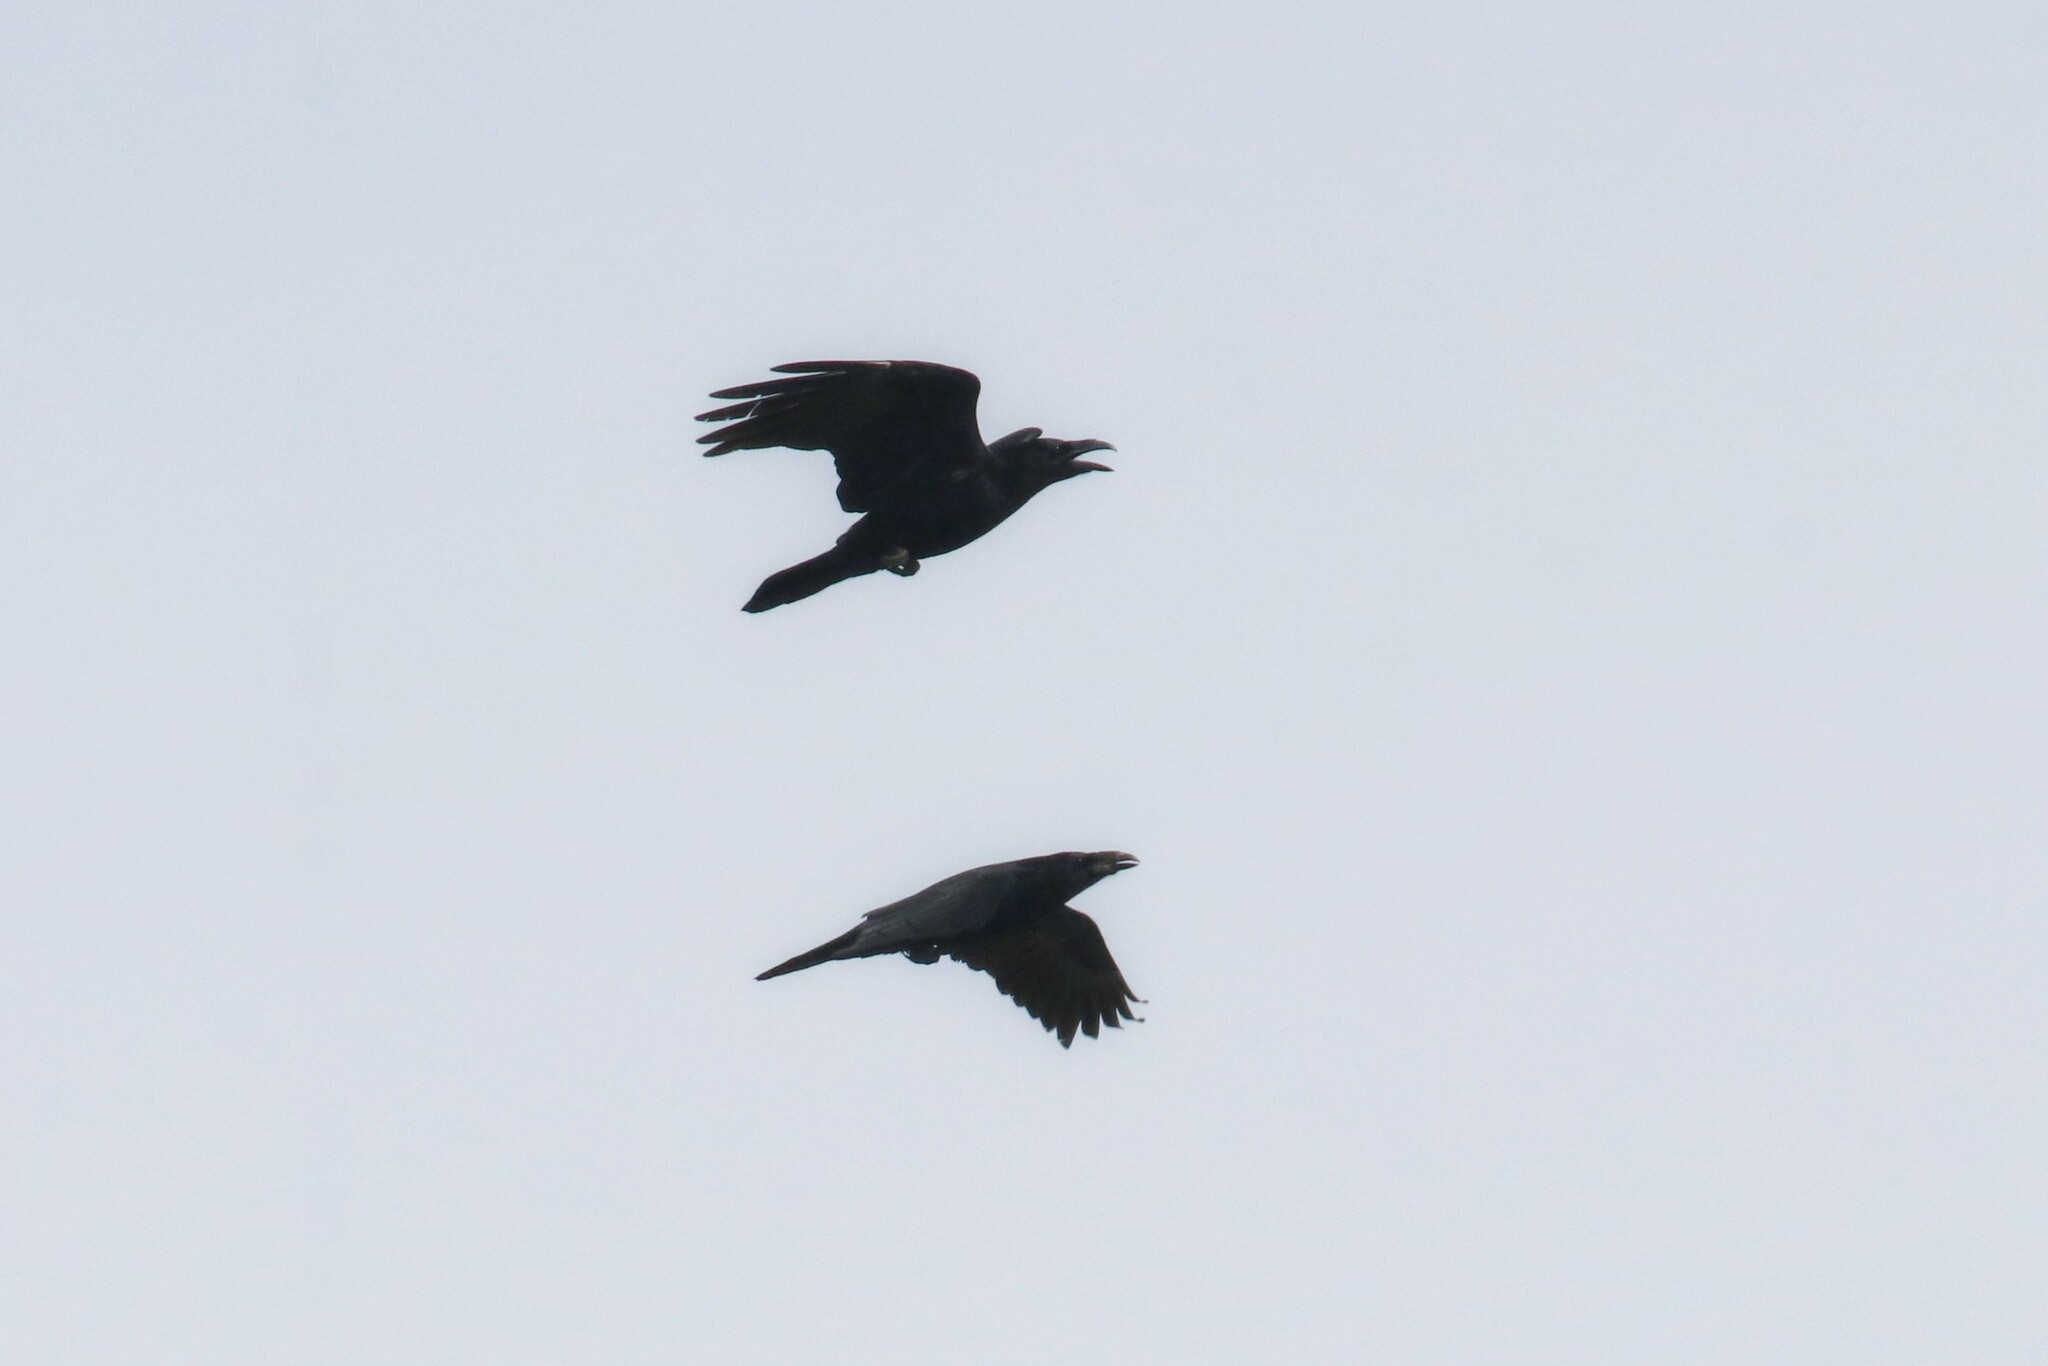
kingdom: Animalia
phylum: Chordata
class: Aves
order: Passeriformes
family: Corvidae
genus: Corvus
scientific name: Corvus corax
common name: Common raven
